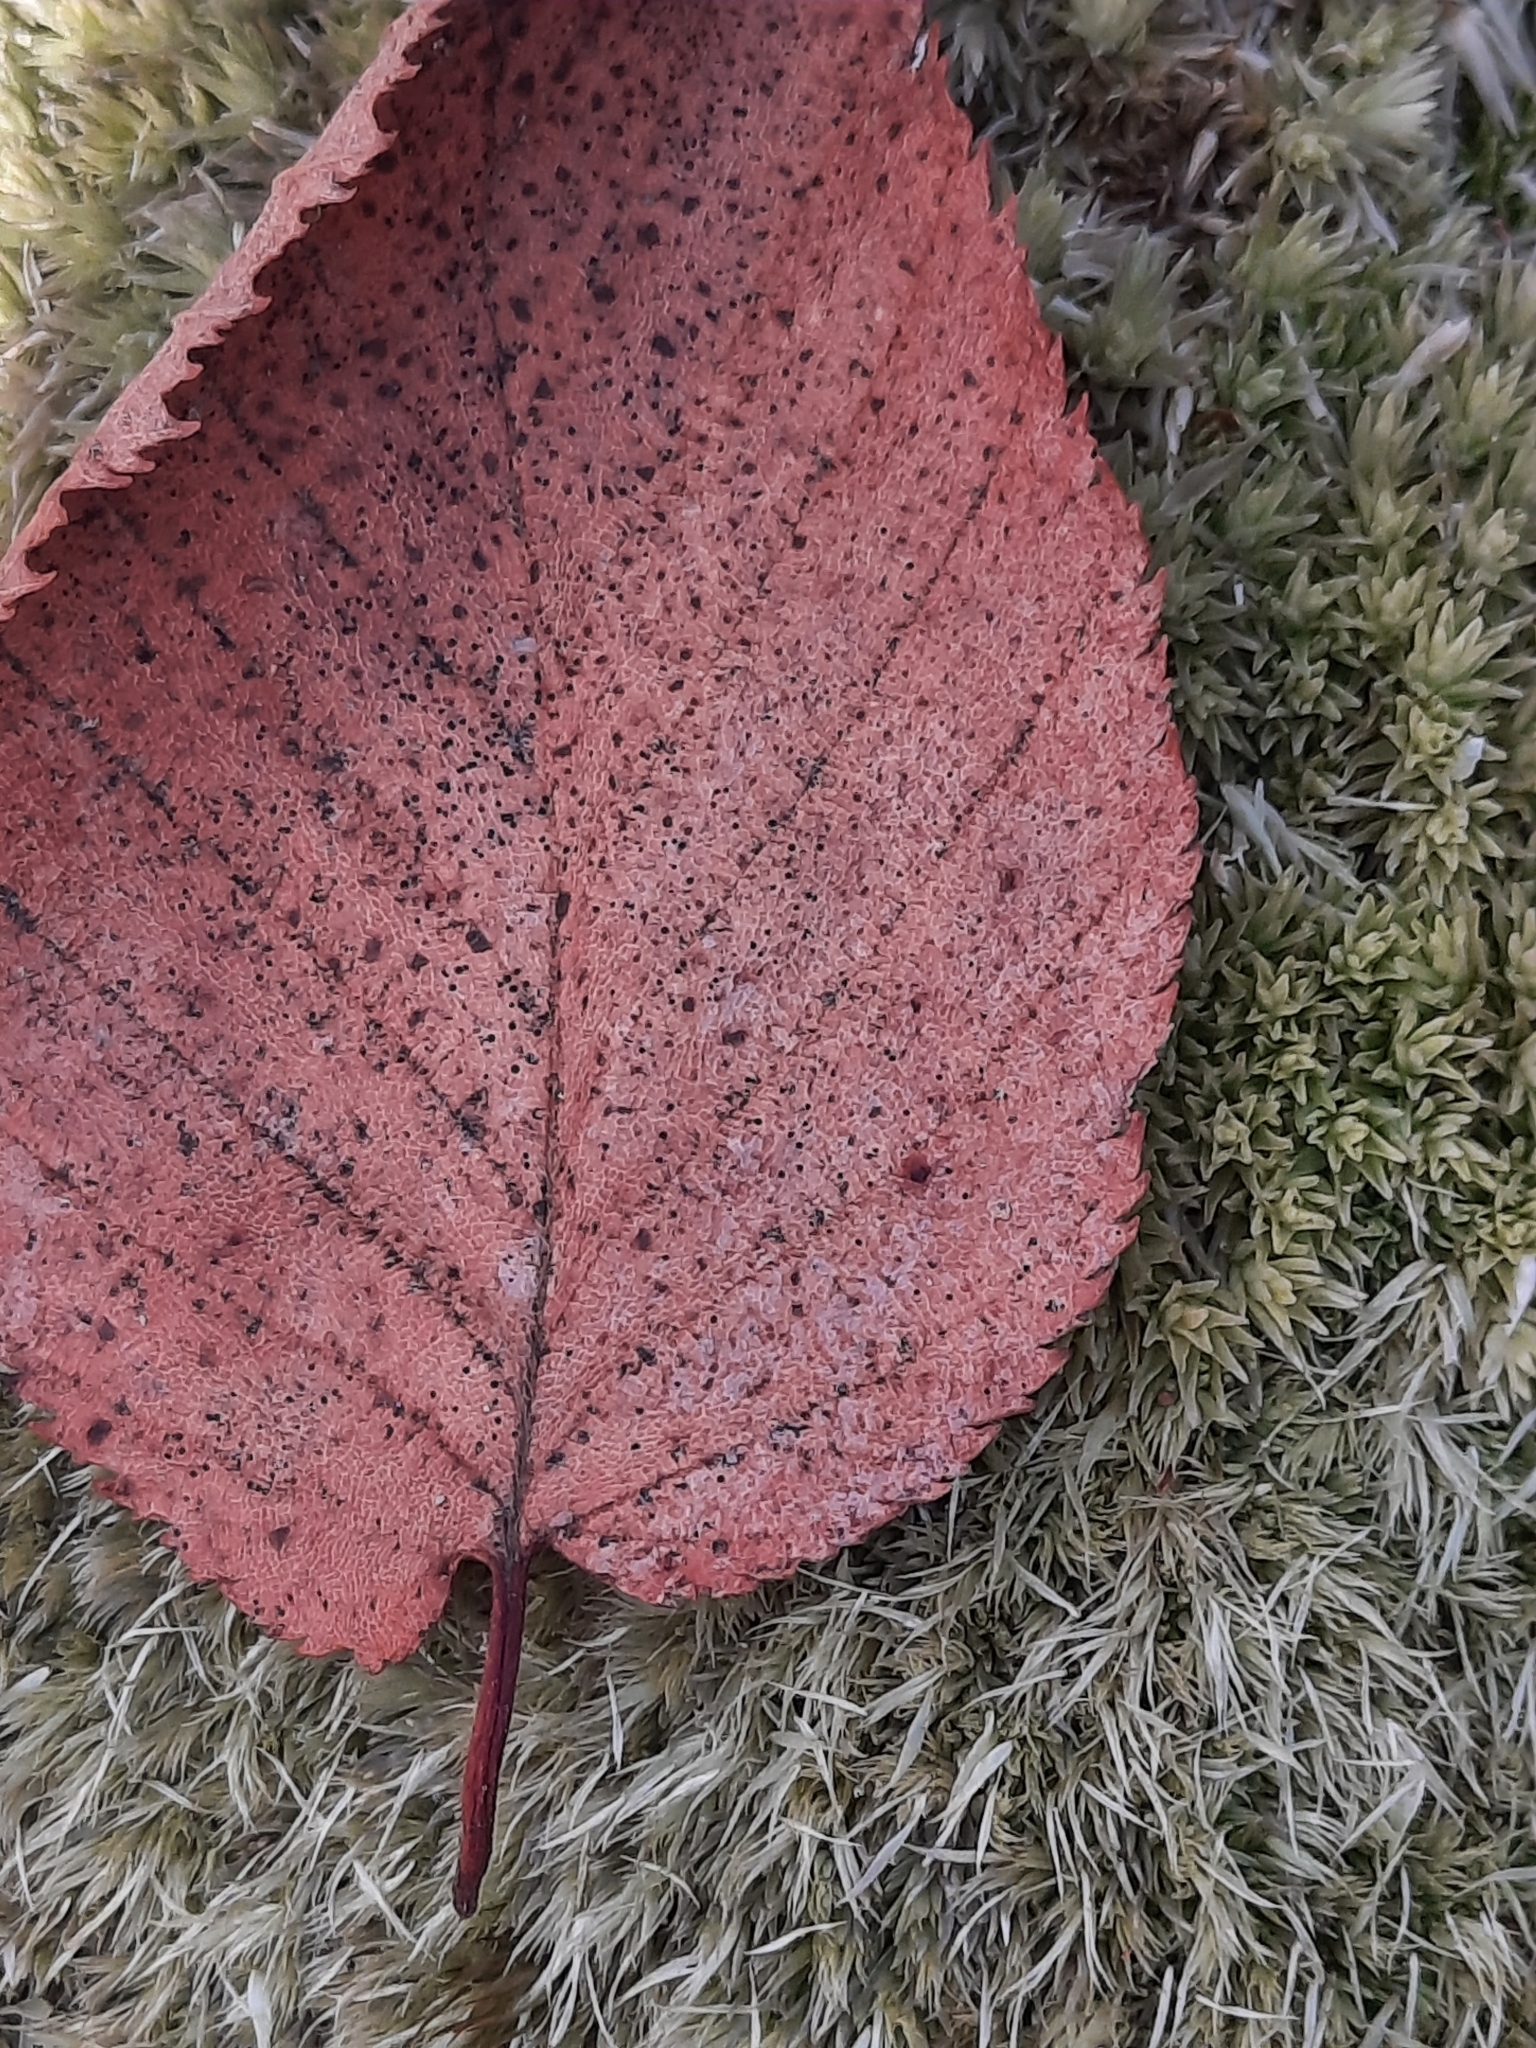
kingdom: Plantae
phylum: Tracheophyta
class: Magnoliopsida
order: Fagales
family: Betulaceae
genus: Betula
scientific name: Betula lenta
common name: Black birch
